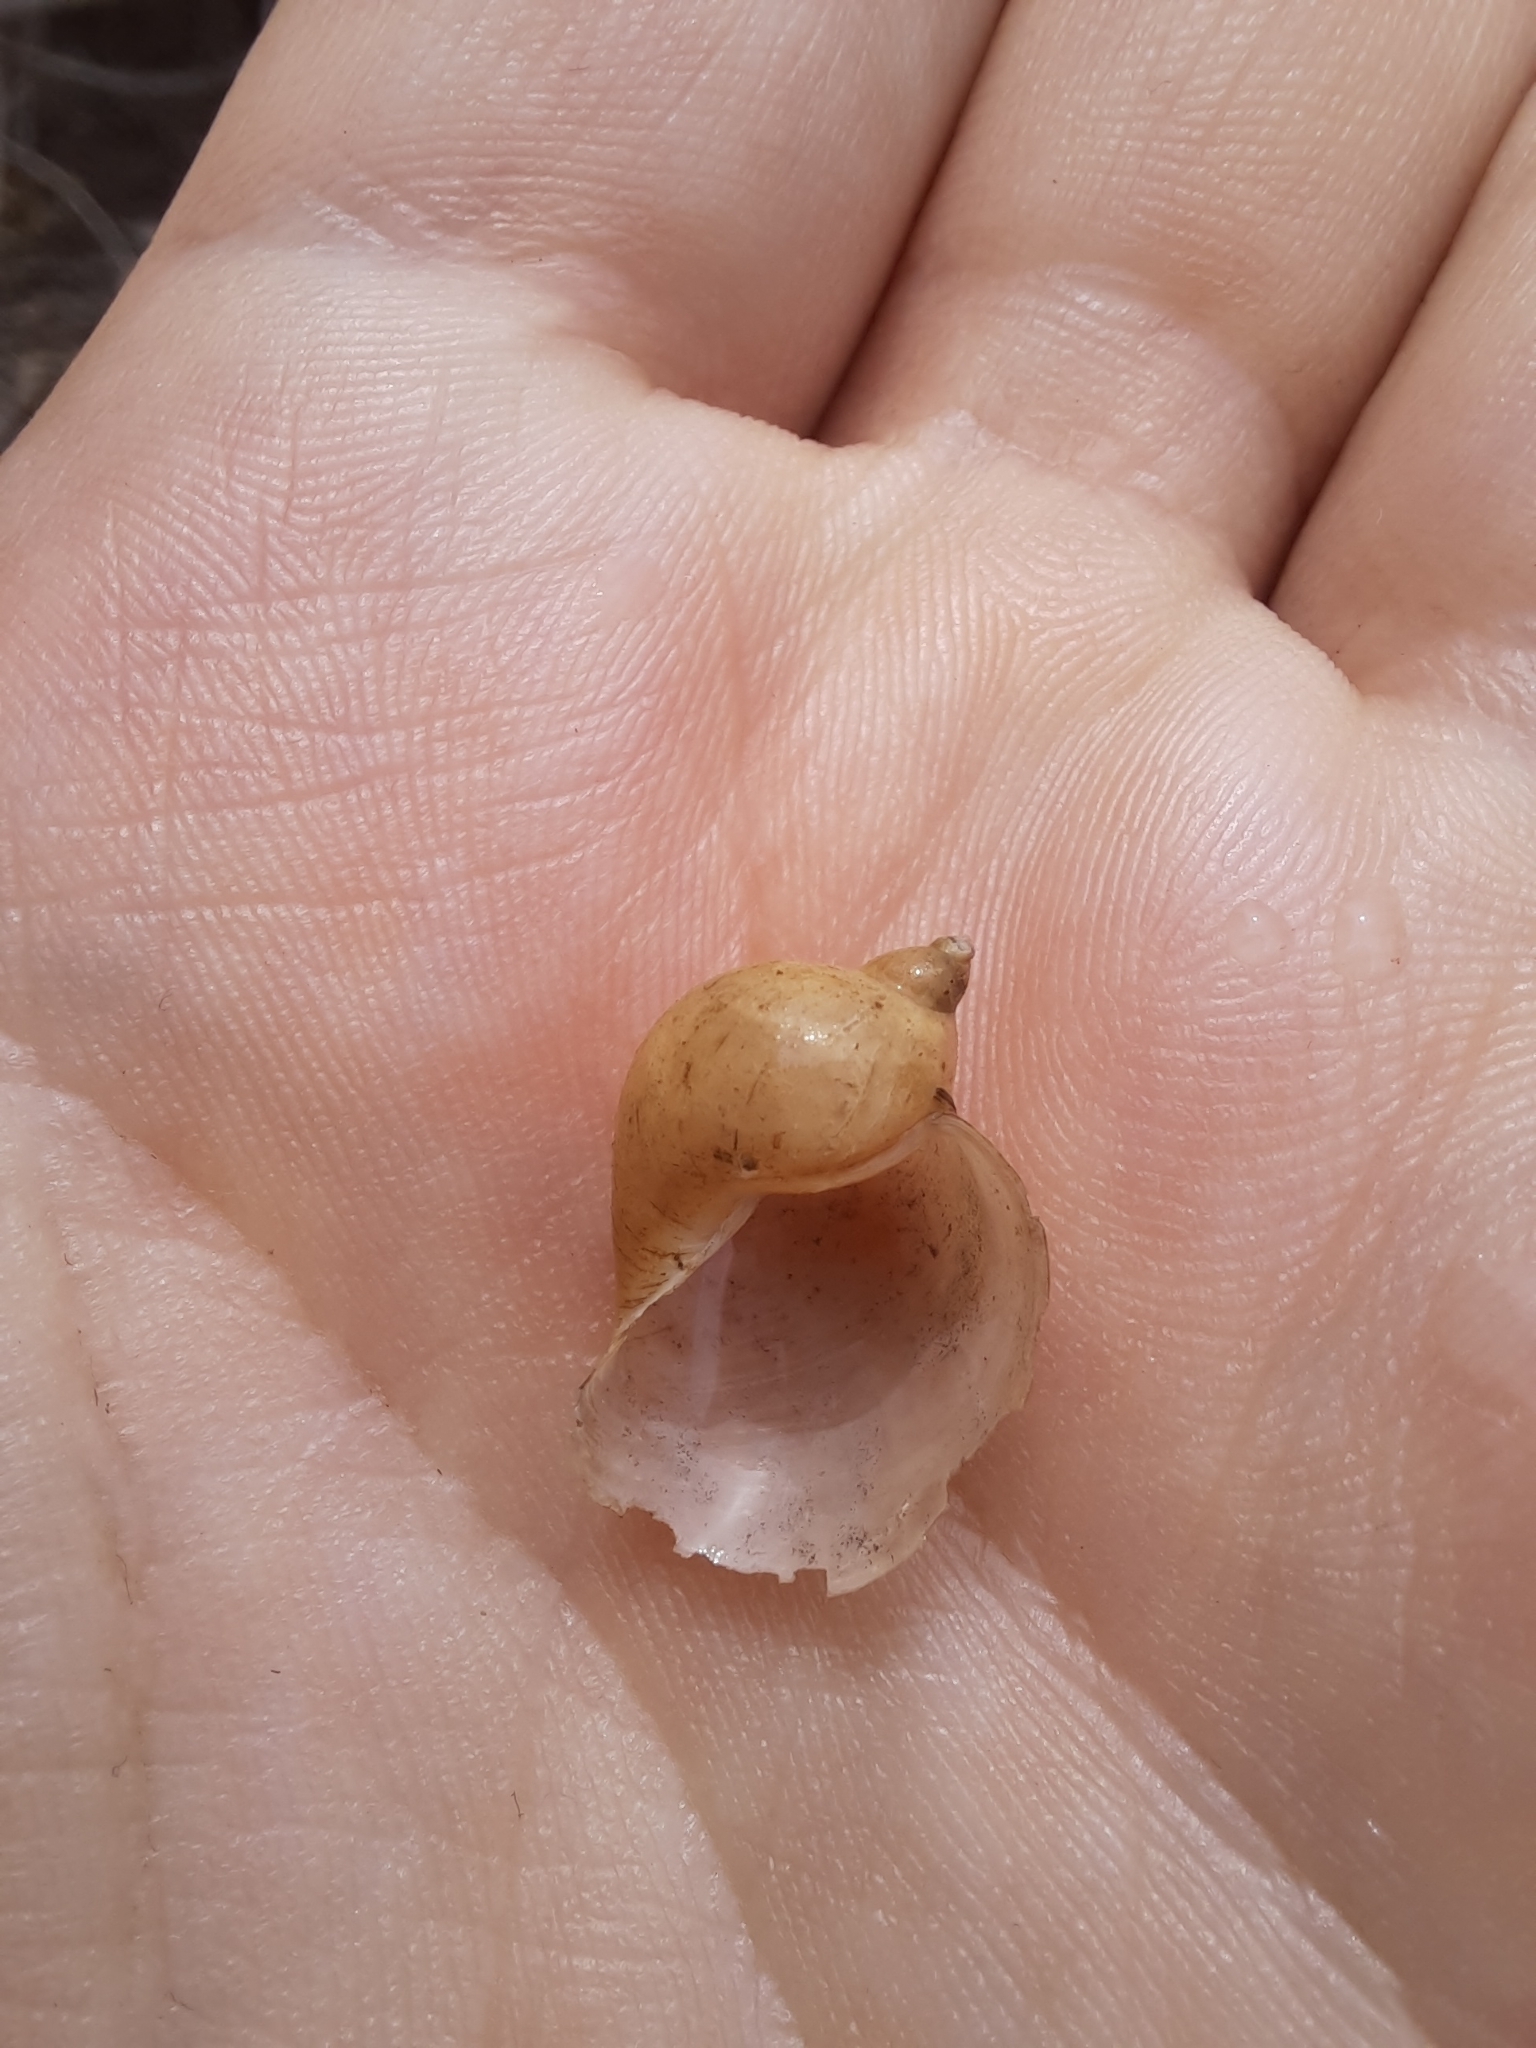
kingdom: Animalia
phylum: Mollusca
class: Gastropoda
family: Lymnaeidae
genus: Radix
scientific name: Radix auricularia
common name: Ear pond snail
